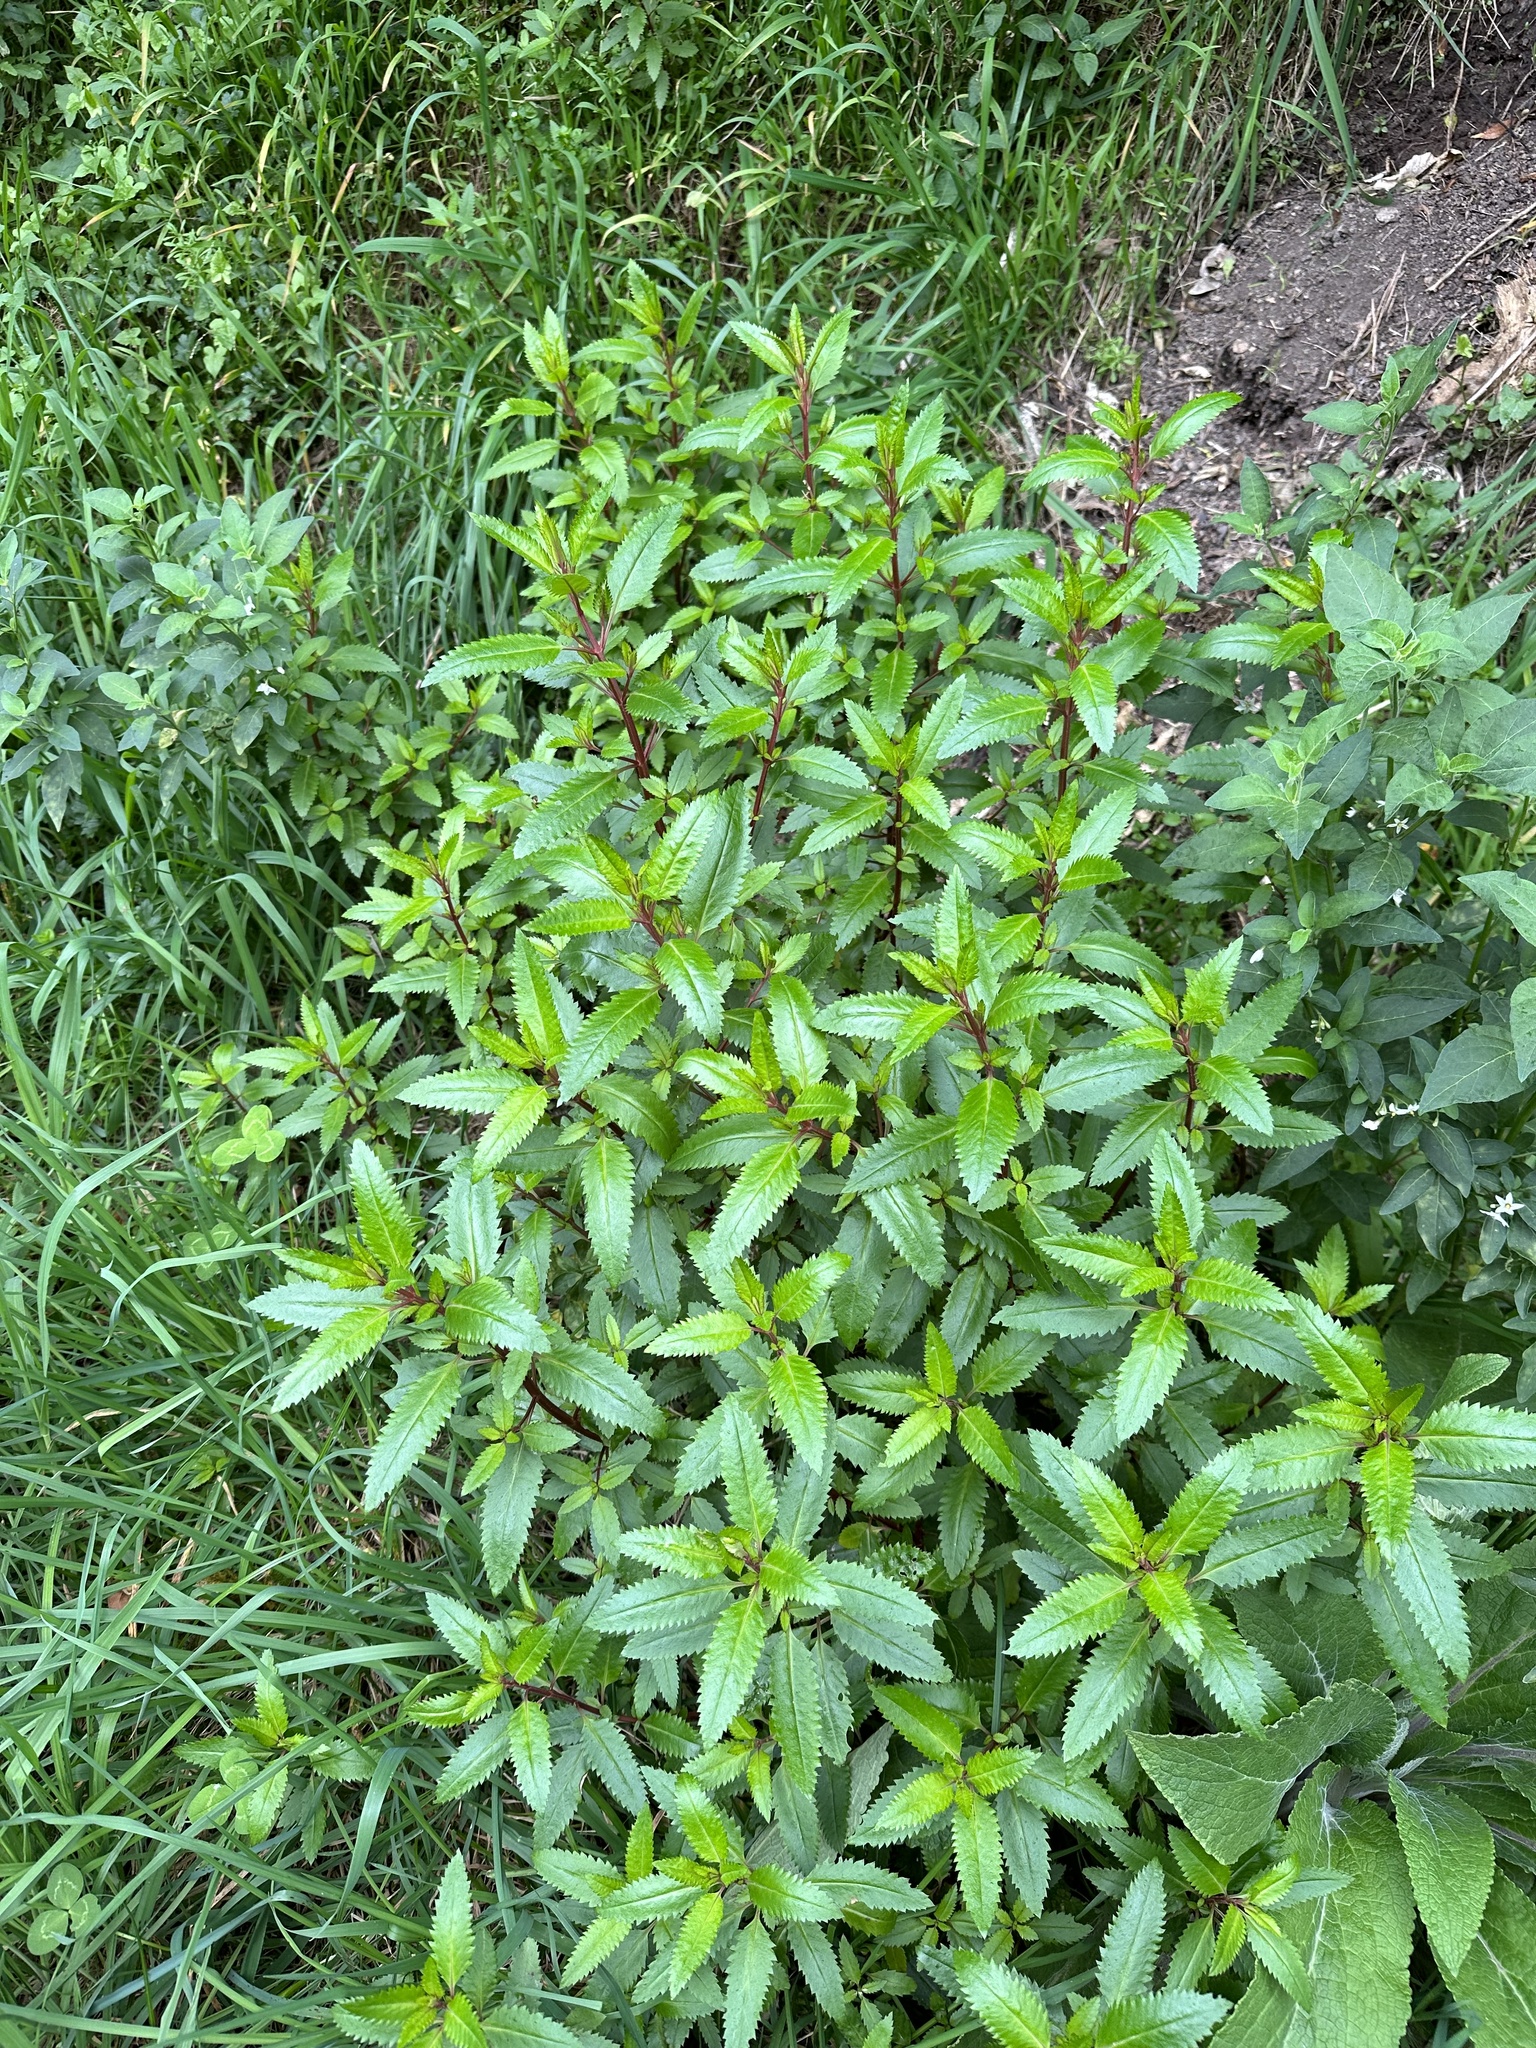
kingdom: Plantae
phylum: Tracheophyta
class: Magnoliopsida
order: Saxifragales
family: Haloragaceae
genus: Haloragis
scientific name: Haloragis erecta
